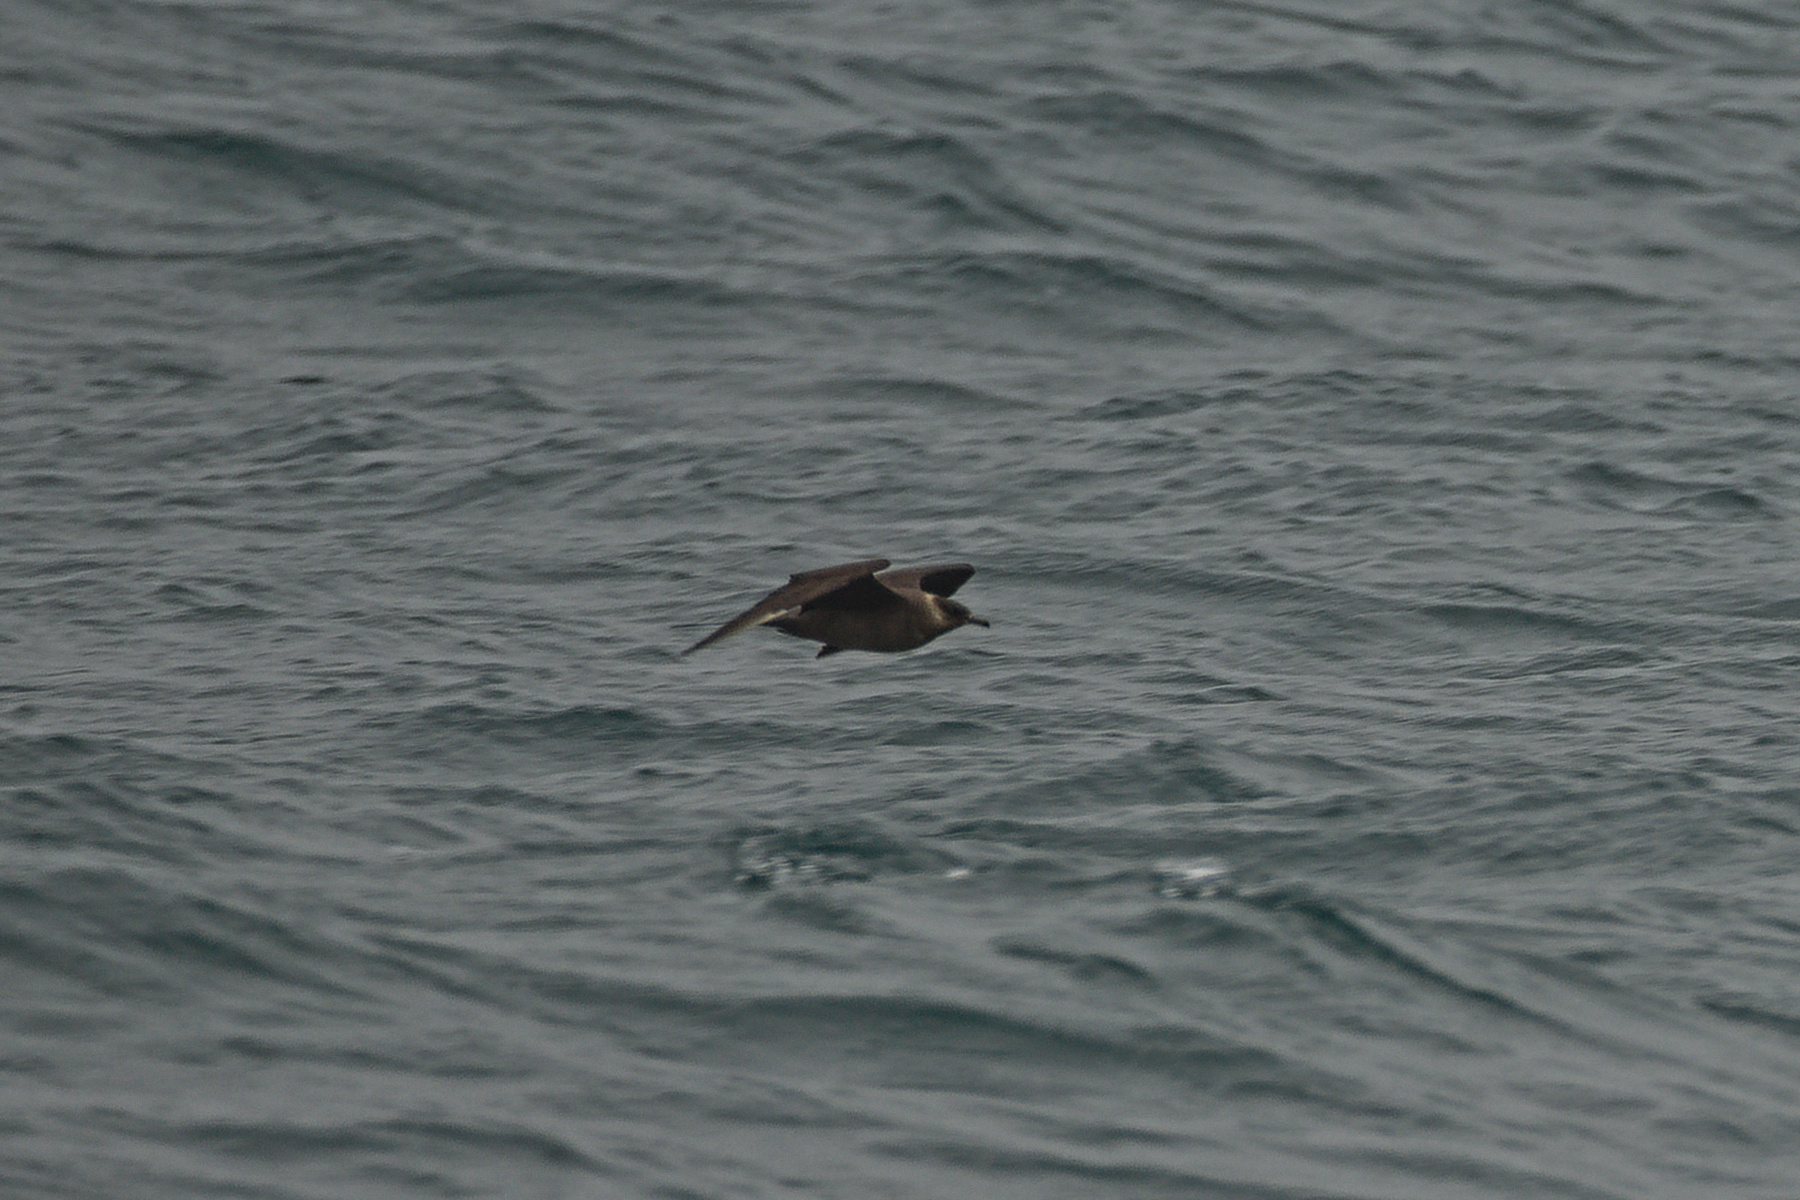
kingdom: Animalia
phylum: Chordata
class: Aves
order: Charadriiformes
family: Stercorariidae
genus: Stercorarius
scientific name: Stercorarius parasiticus
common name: Parasitic jaeger
